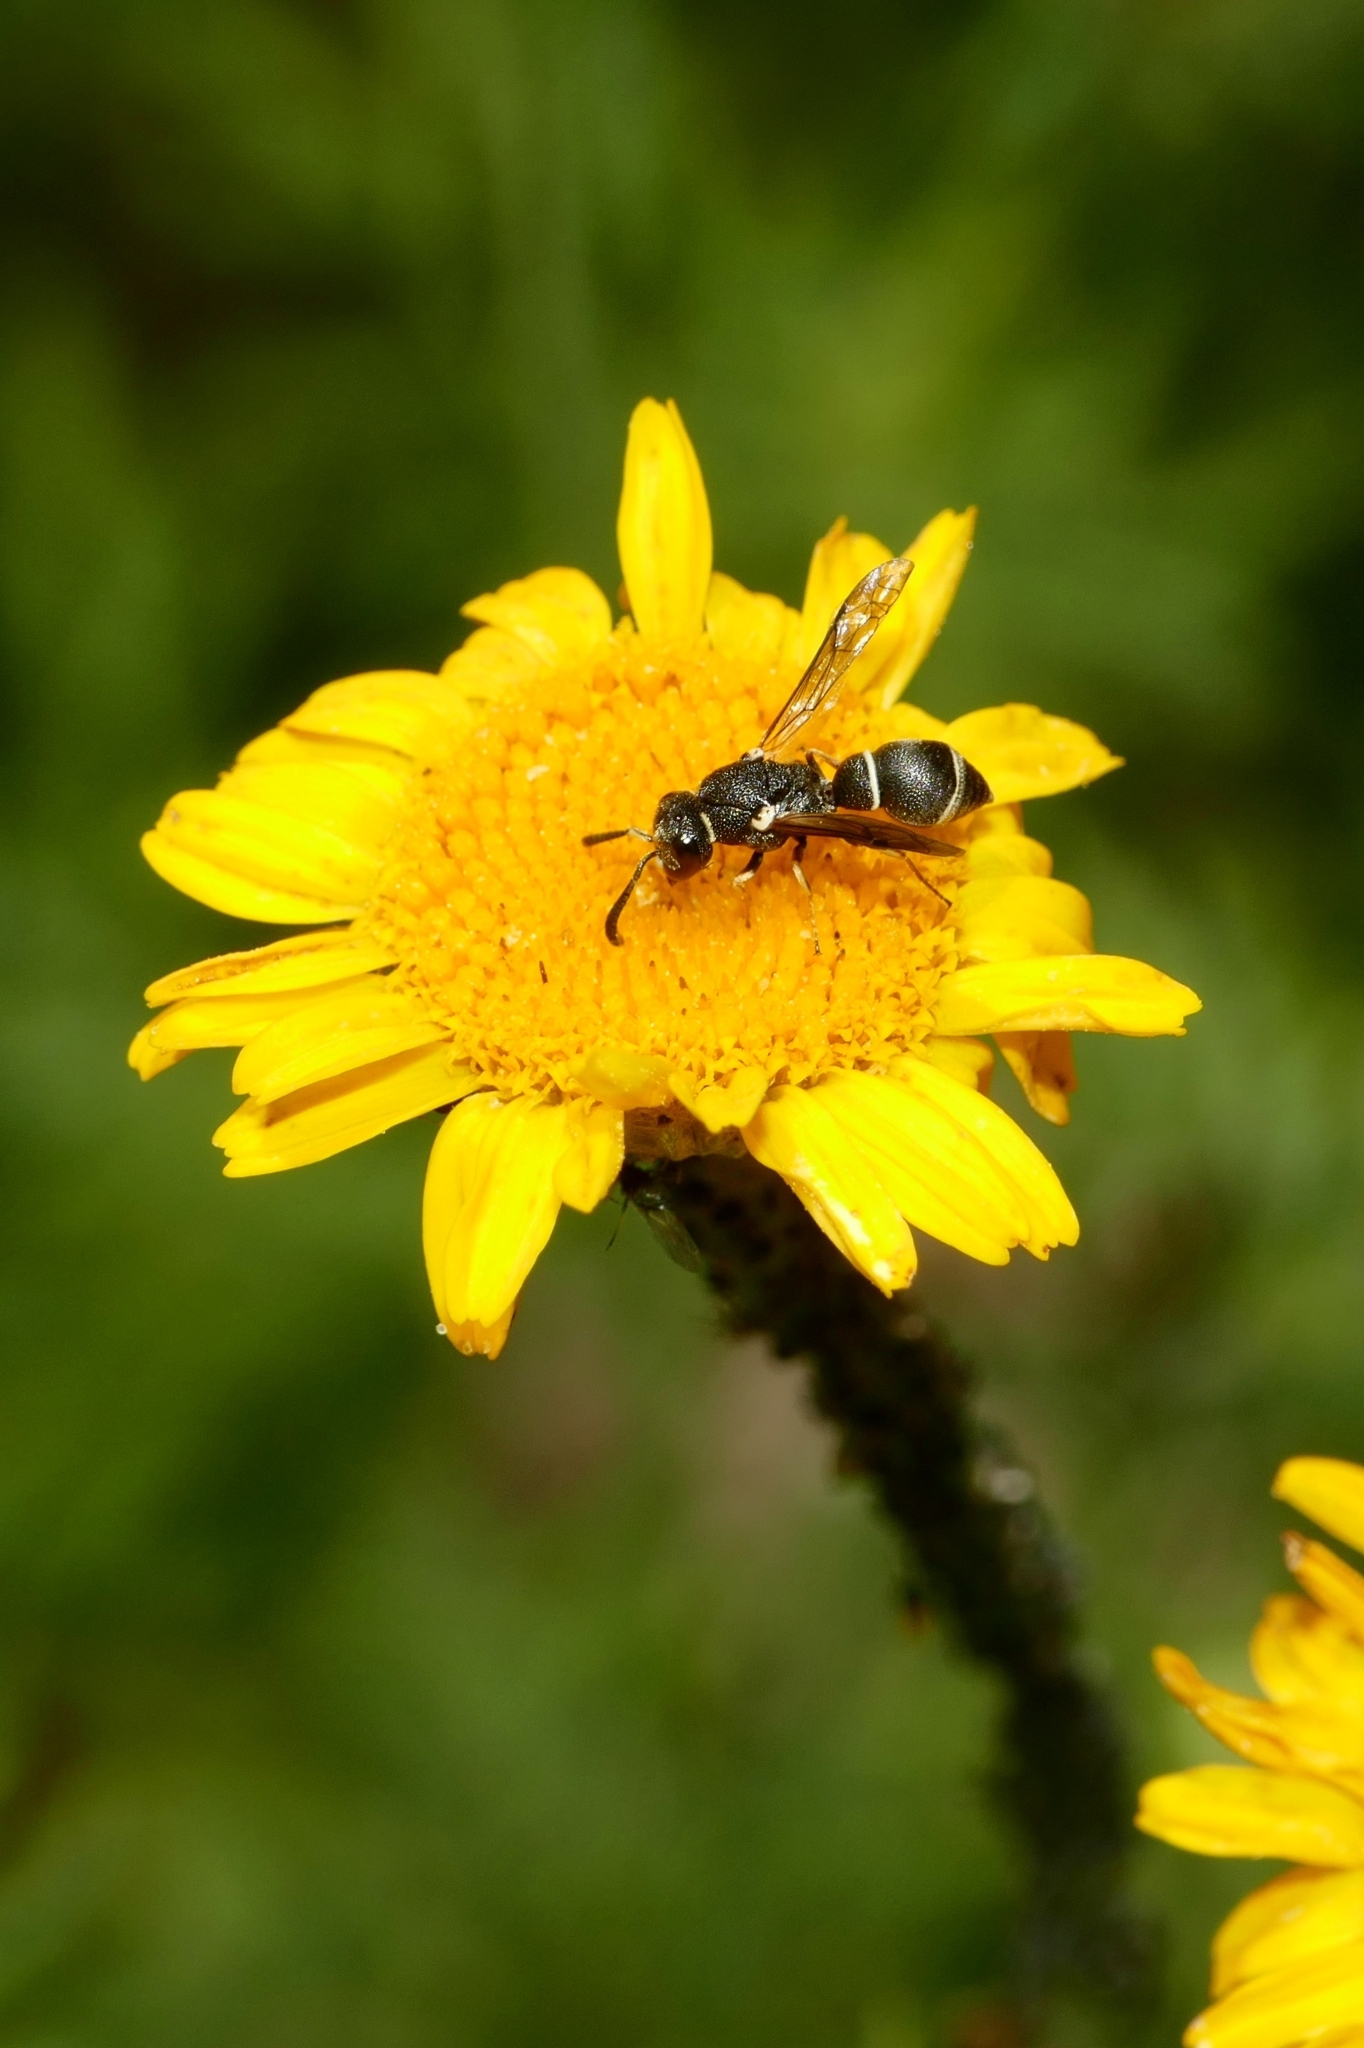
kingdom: Animalia
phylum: Arthropoda
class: Insecta
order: Hymenoptera
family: Eumenidae
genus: Leptochilus
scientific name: Leptochilus regulus
